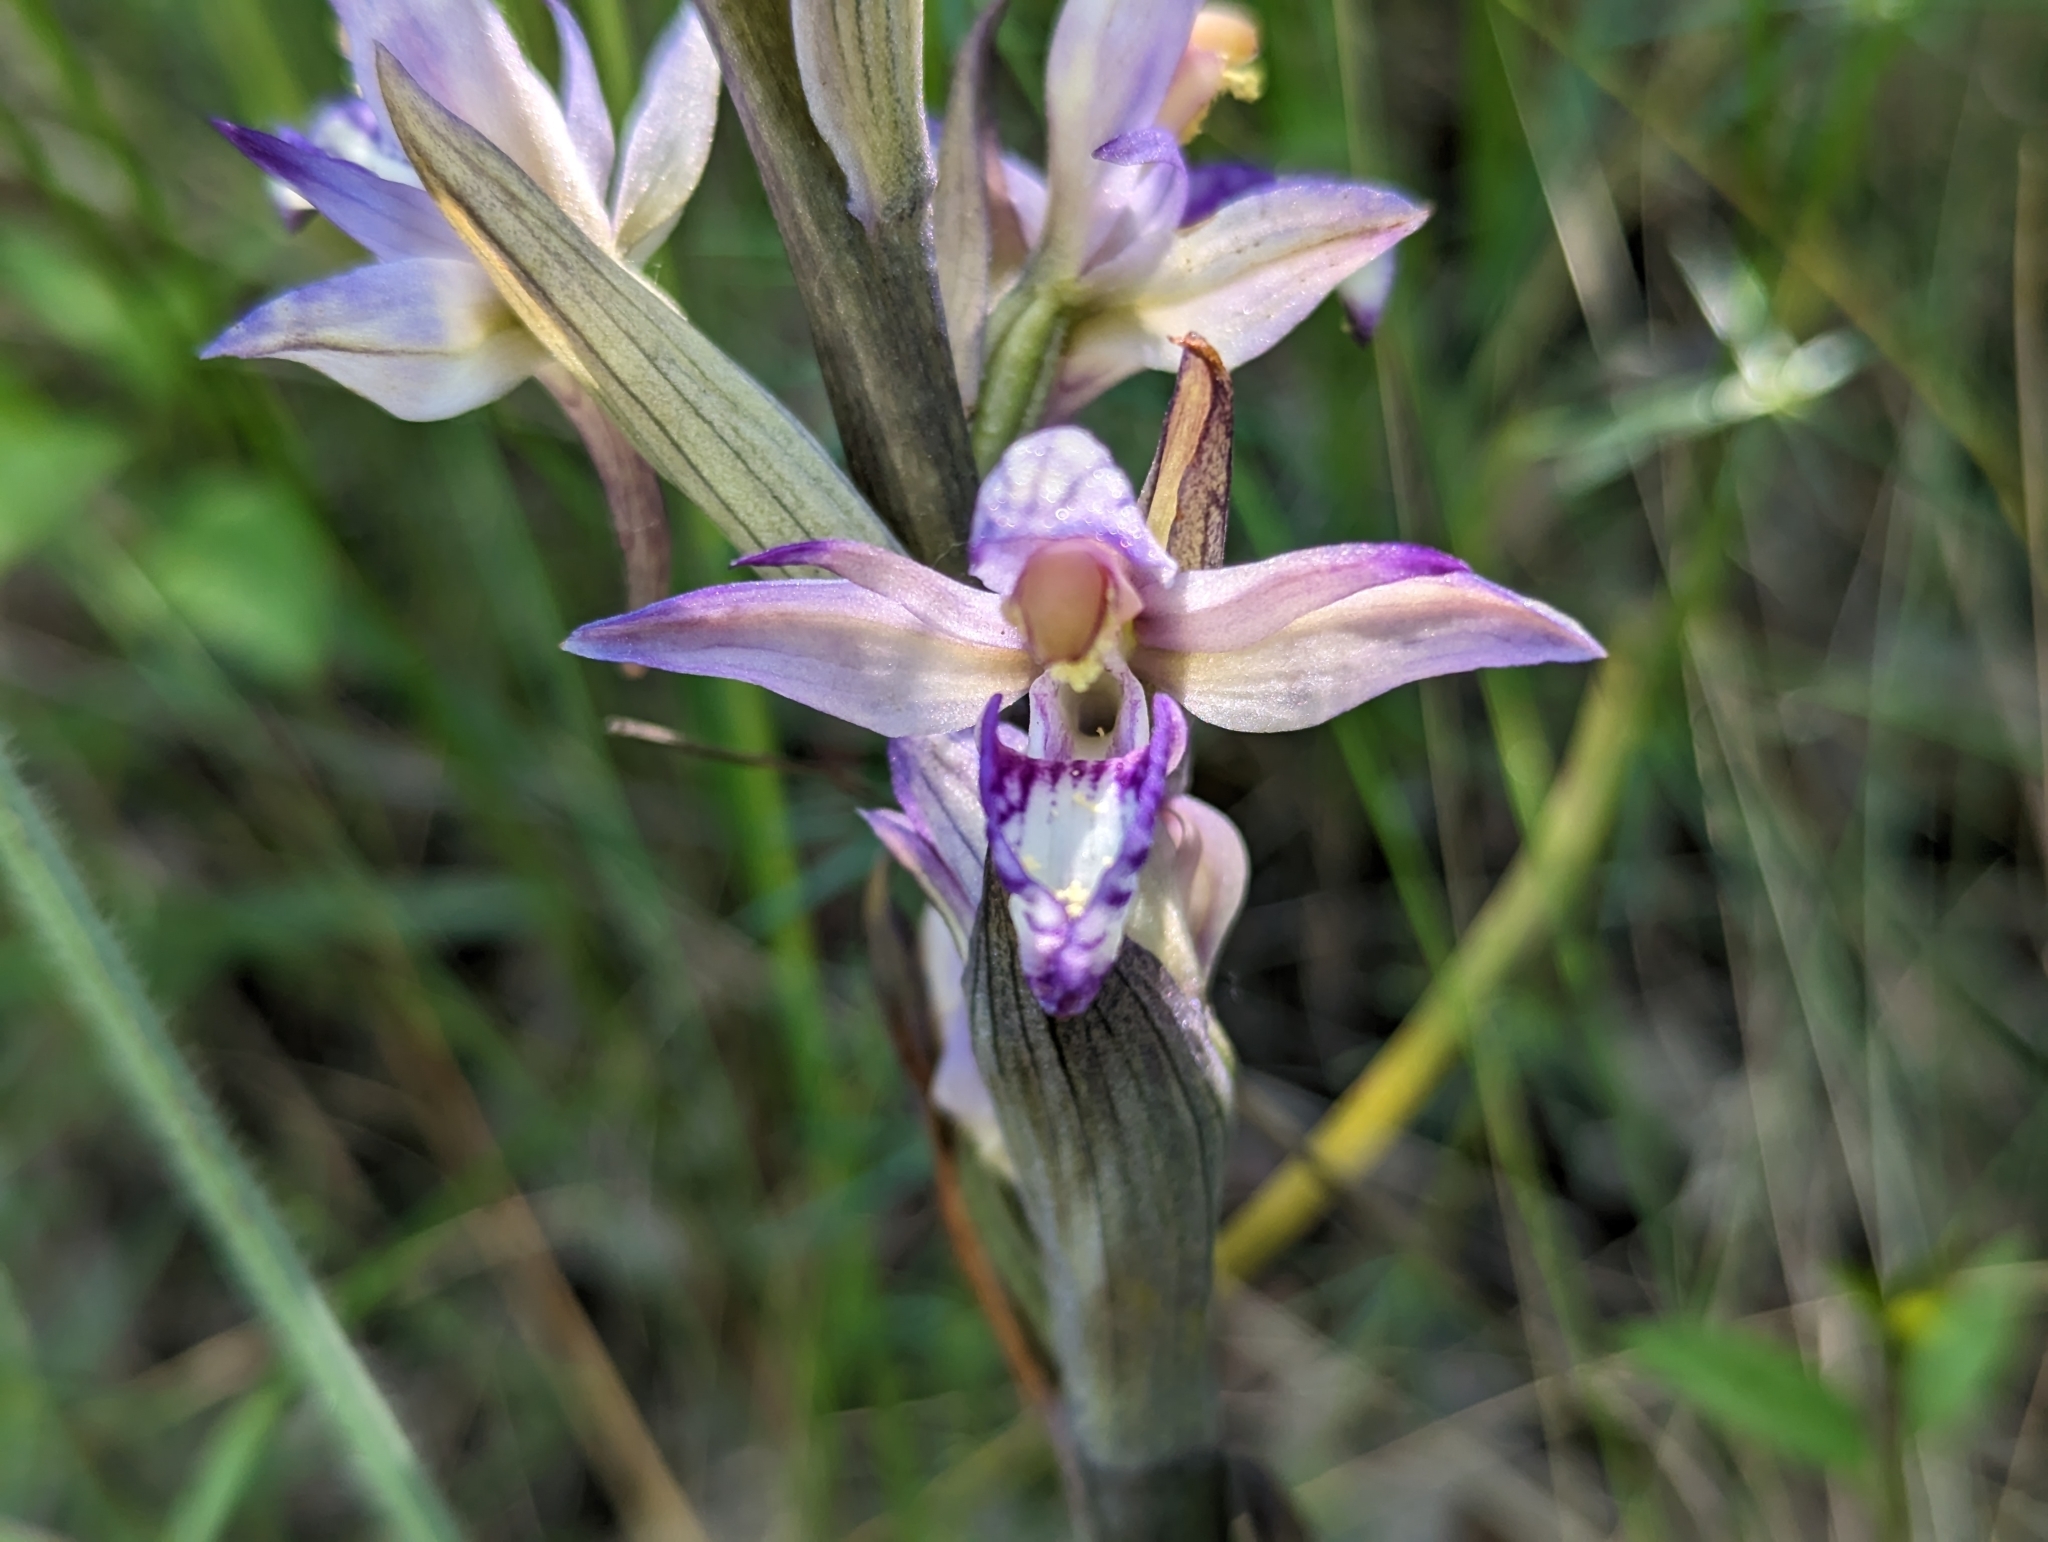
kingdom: Plantae
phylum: Tracheophyta
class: Liliopsida
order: Asparagales
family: Orchidaceae
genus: Limodorum
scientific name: Limodorum abortivum
